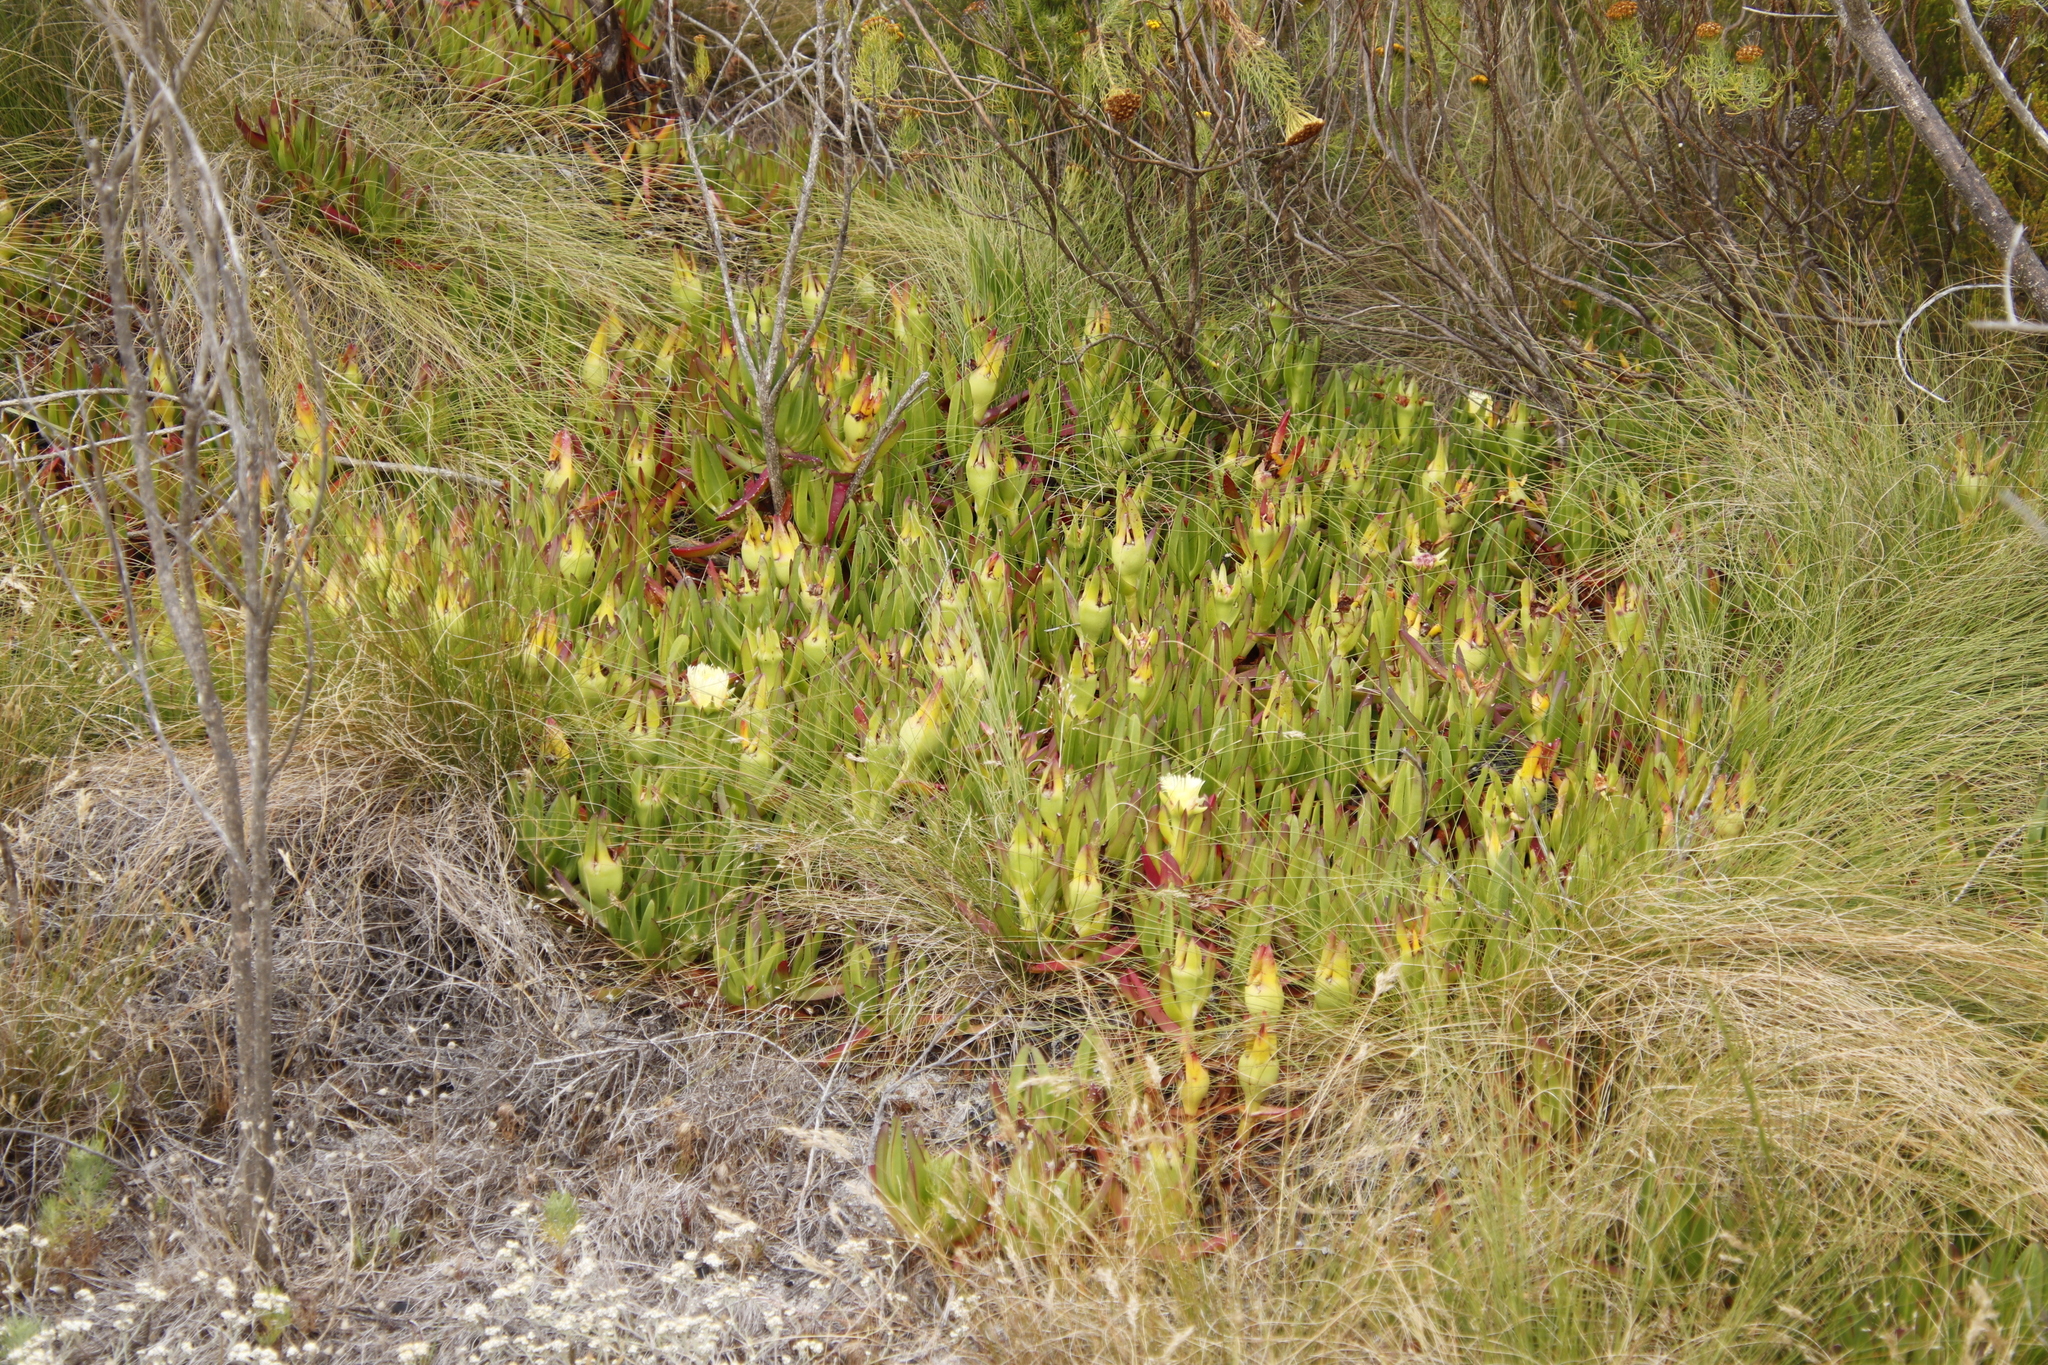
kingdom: Plantae
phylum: Tracheophyta
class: Magnoliopsida
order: Caryophyllales
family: Aizoaceae
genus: Carpobrotus
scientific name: Carpobrotus edulis
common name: Hottentot-fig
